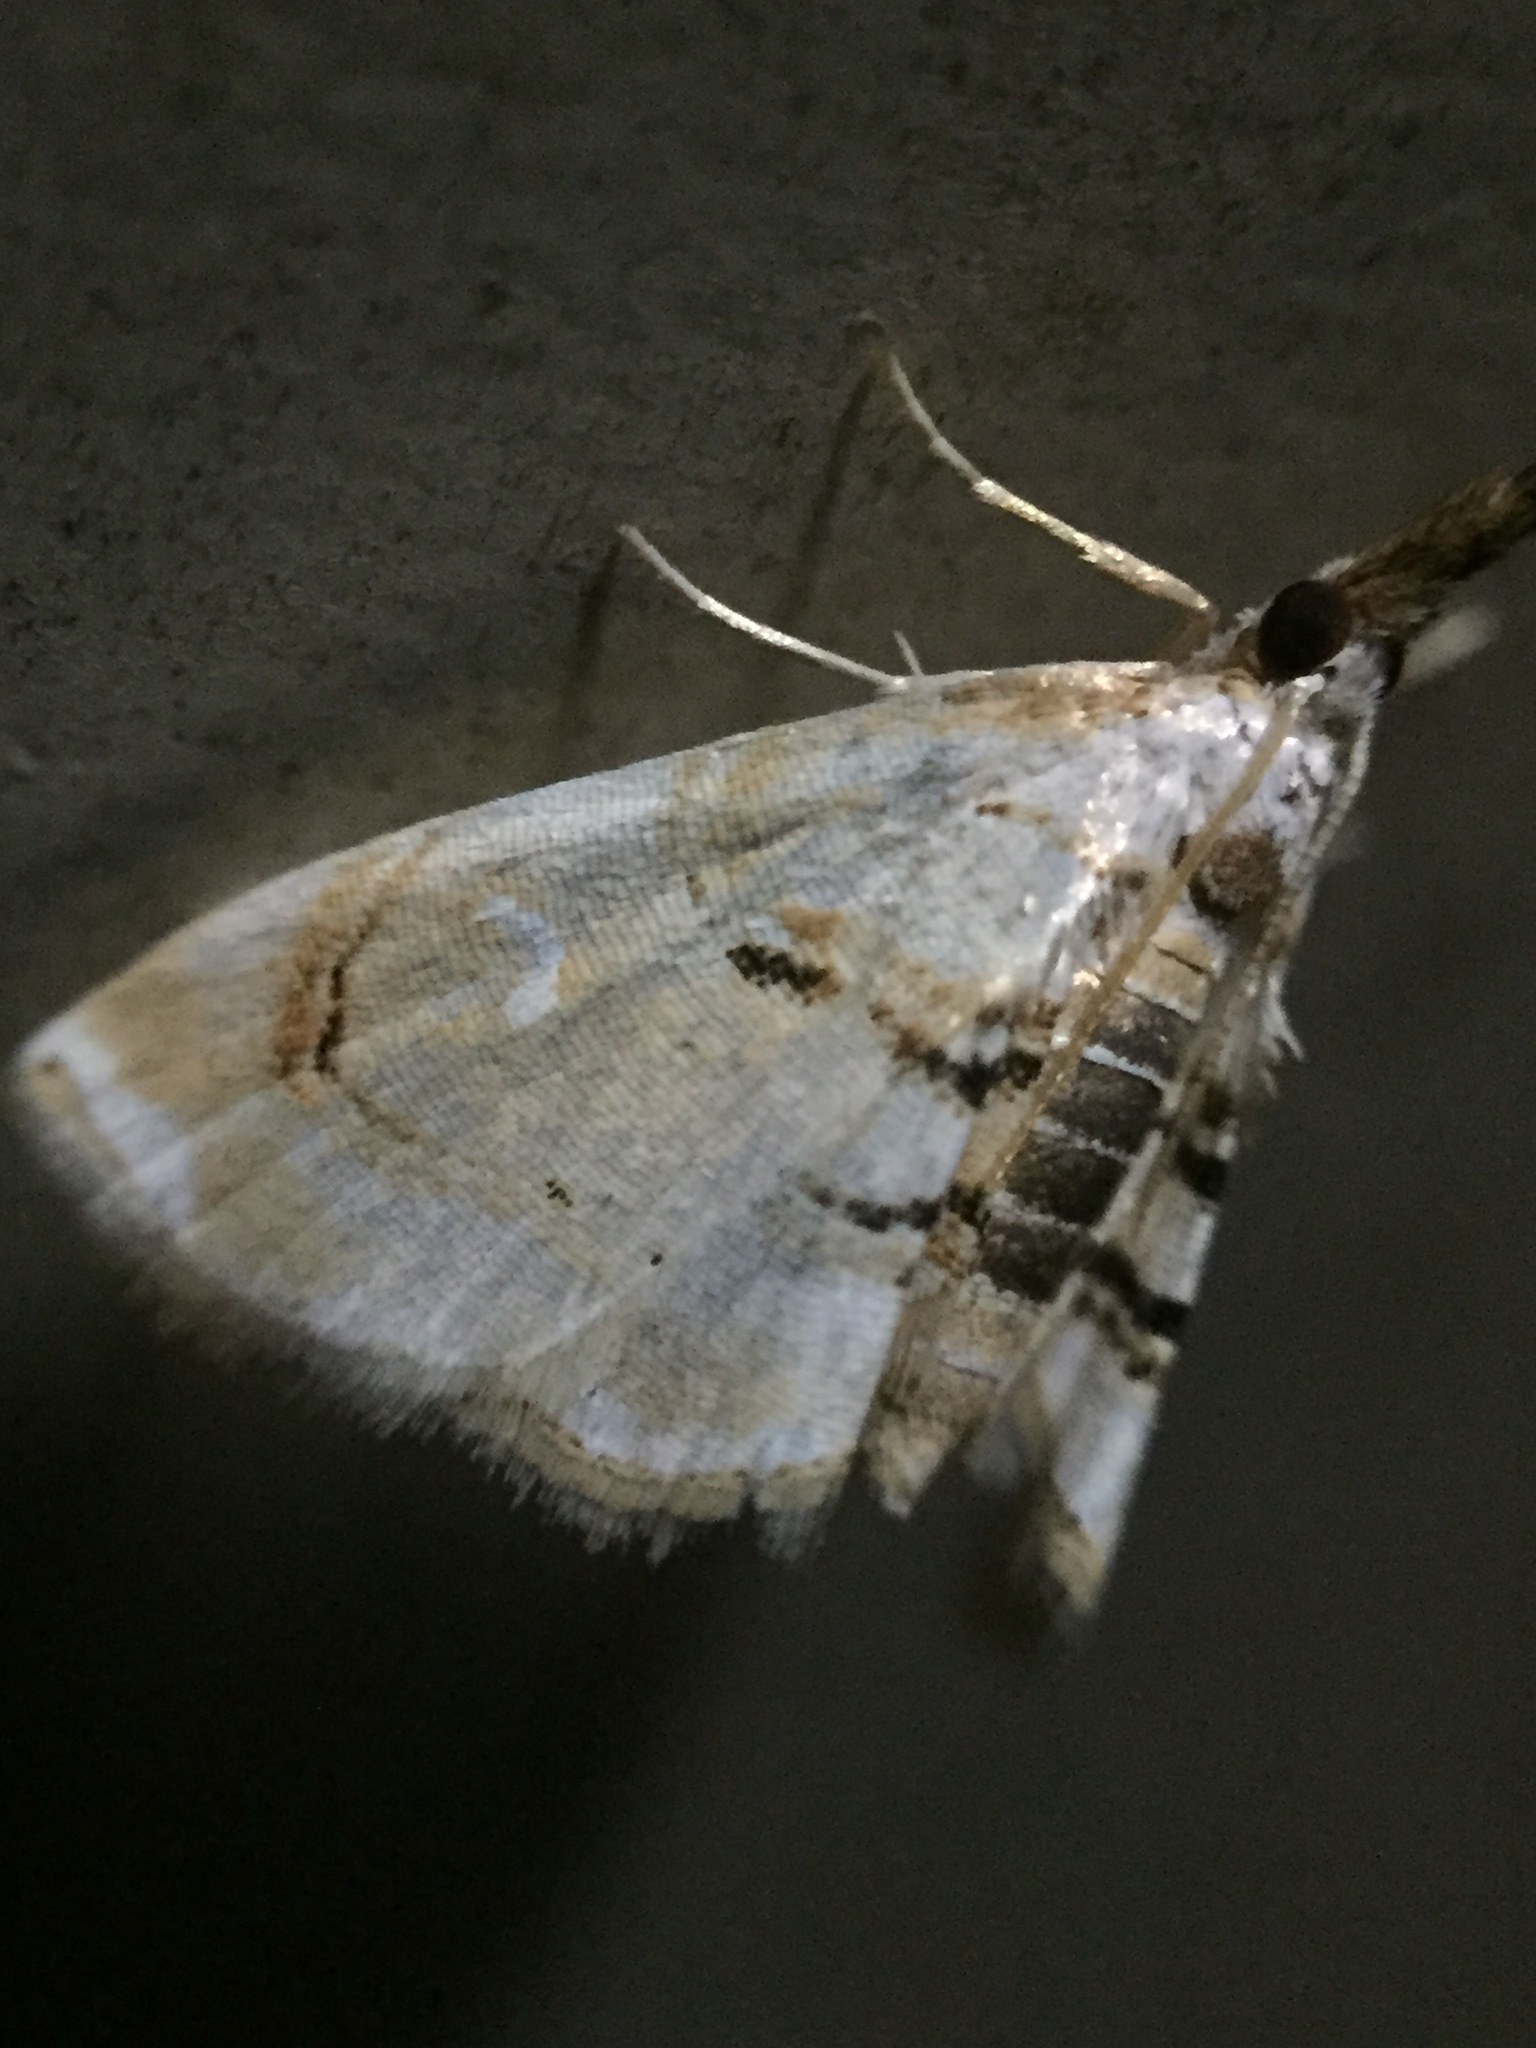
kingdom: Animalia
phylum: Arthropoda
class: Insecta
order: Lepidoptera
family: Crambidae
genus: Trichophysetis
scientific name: Trichophysetis
